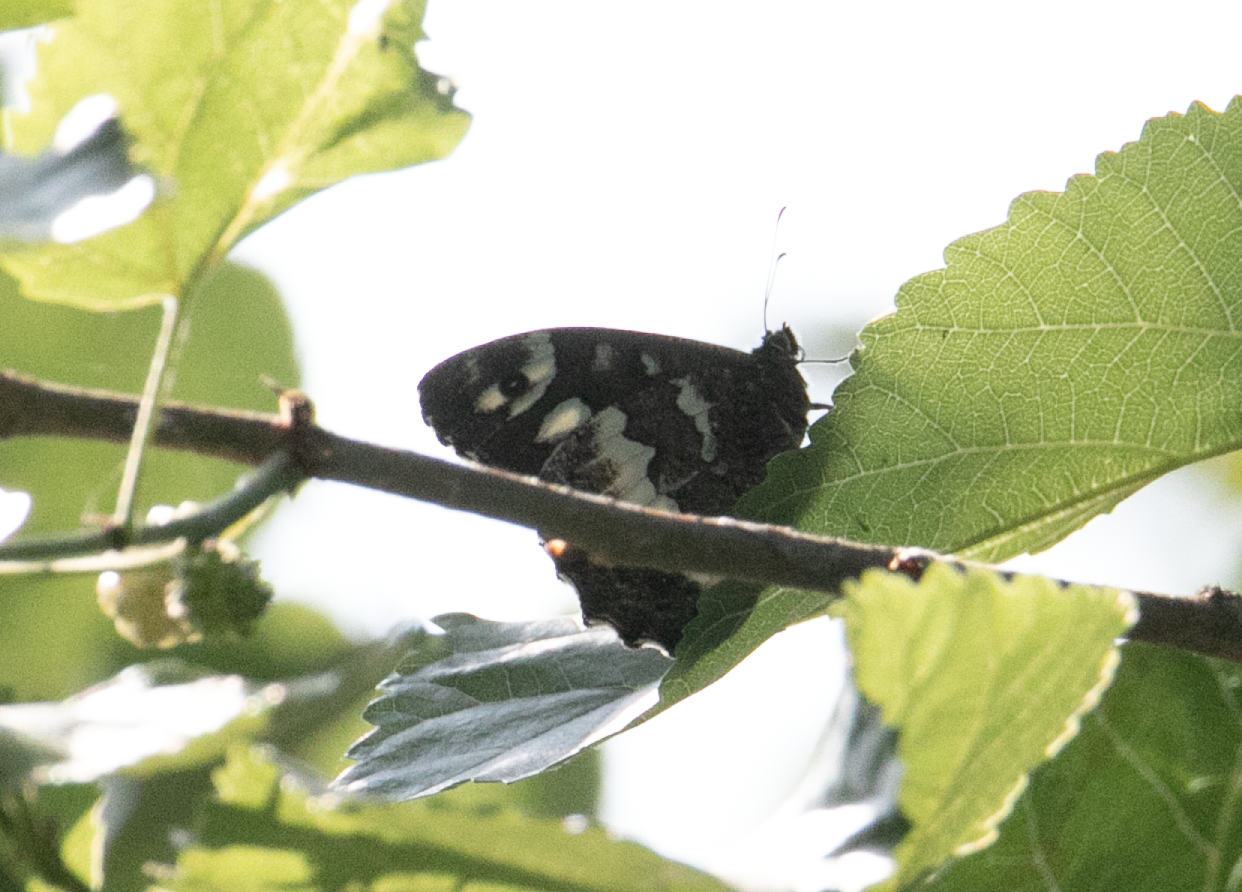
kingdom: Animalia
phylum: Arthropoda
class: Insecta
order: Lepidoptera
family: Lycaenidae
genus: Loweia
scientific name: Loweia tityrus
